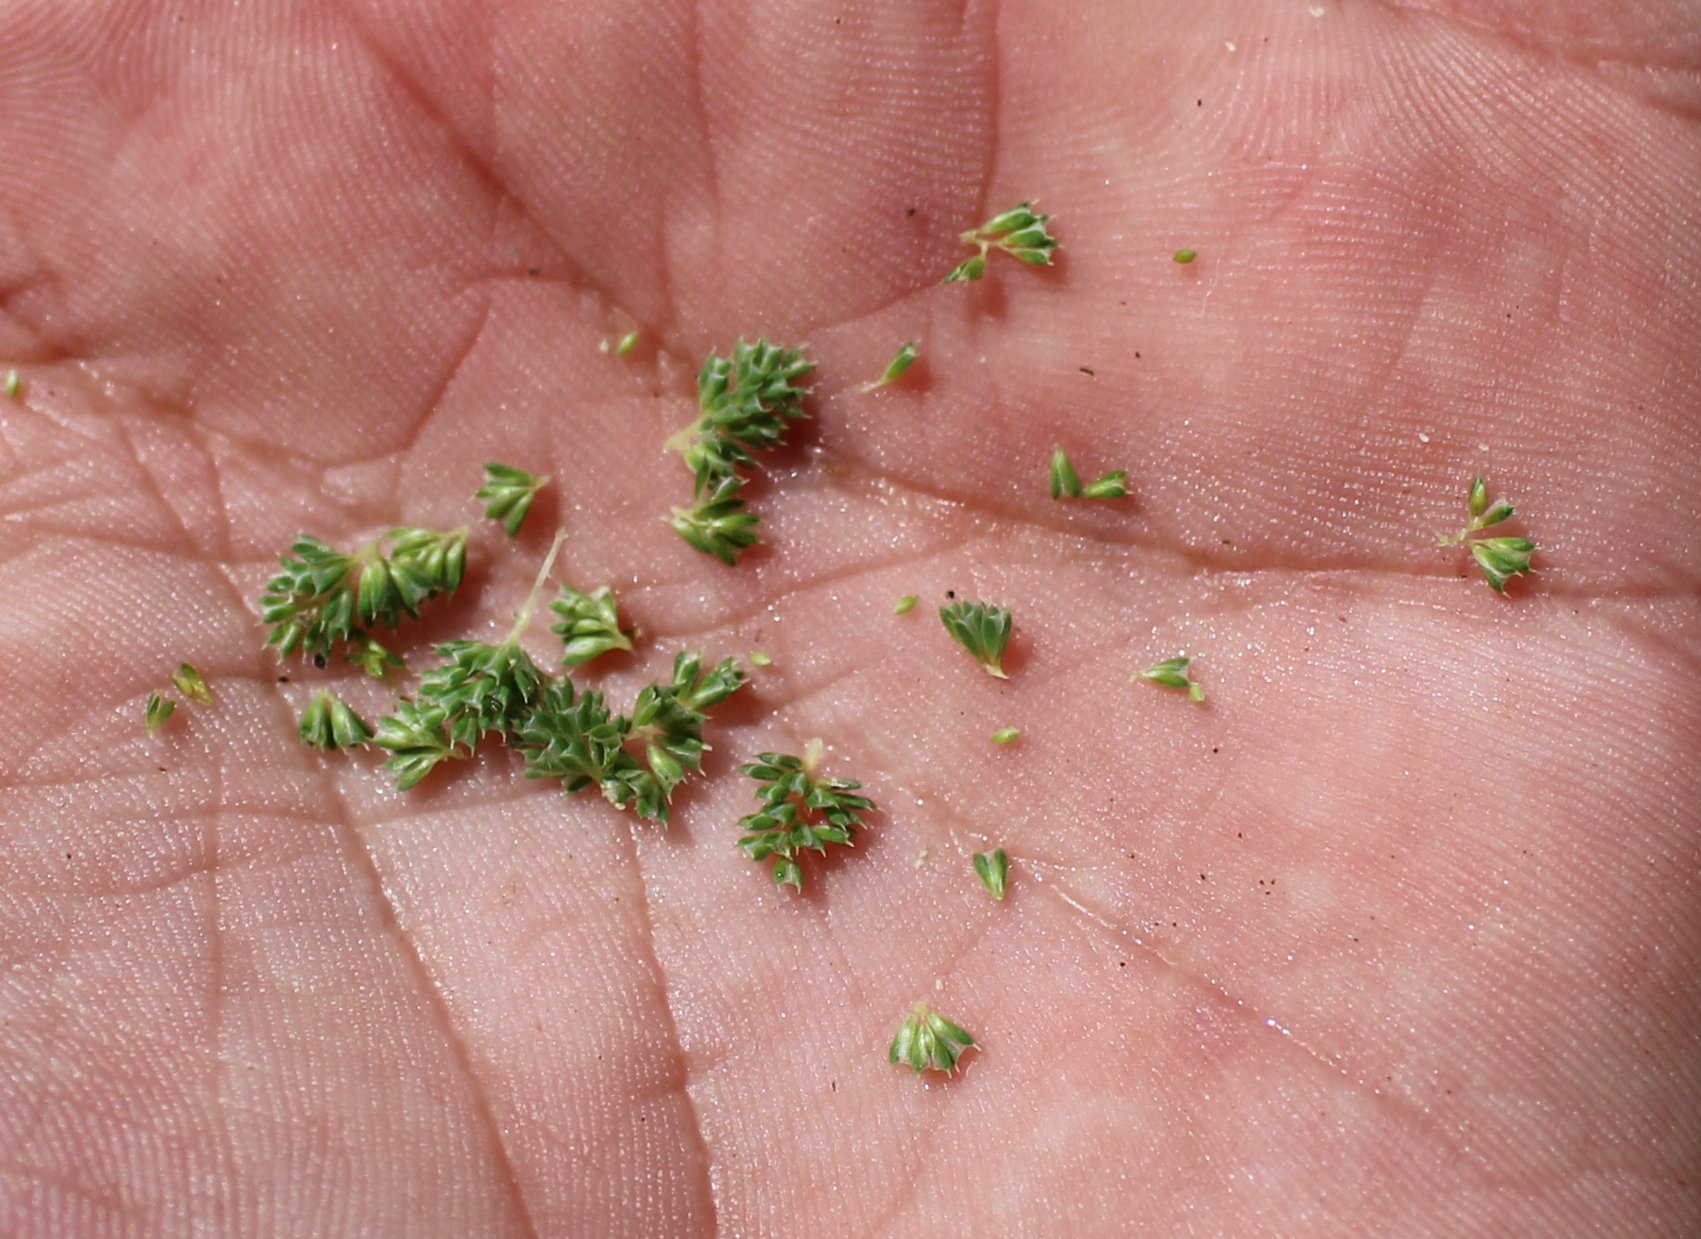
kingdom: Plantae
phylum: Tracheophyta
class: Liliopsida
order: Poales
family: Poaceae
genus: Phleum
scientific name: Phleum phleoides
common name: Purple-stem cat's-tail
